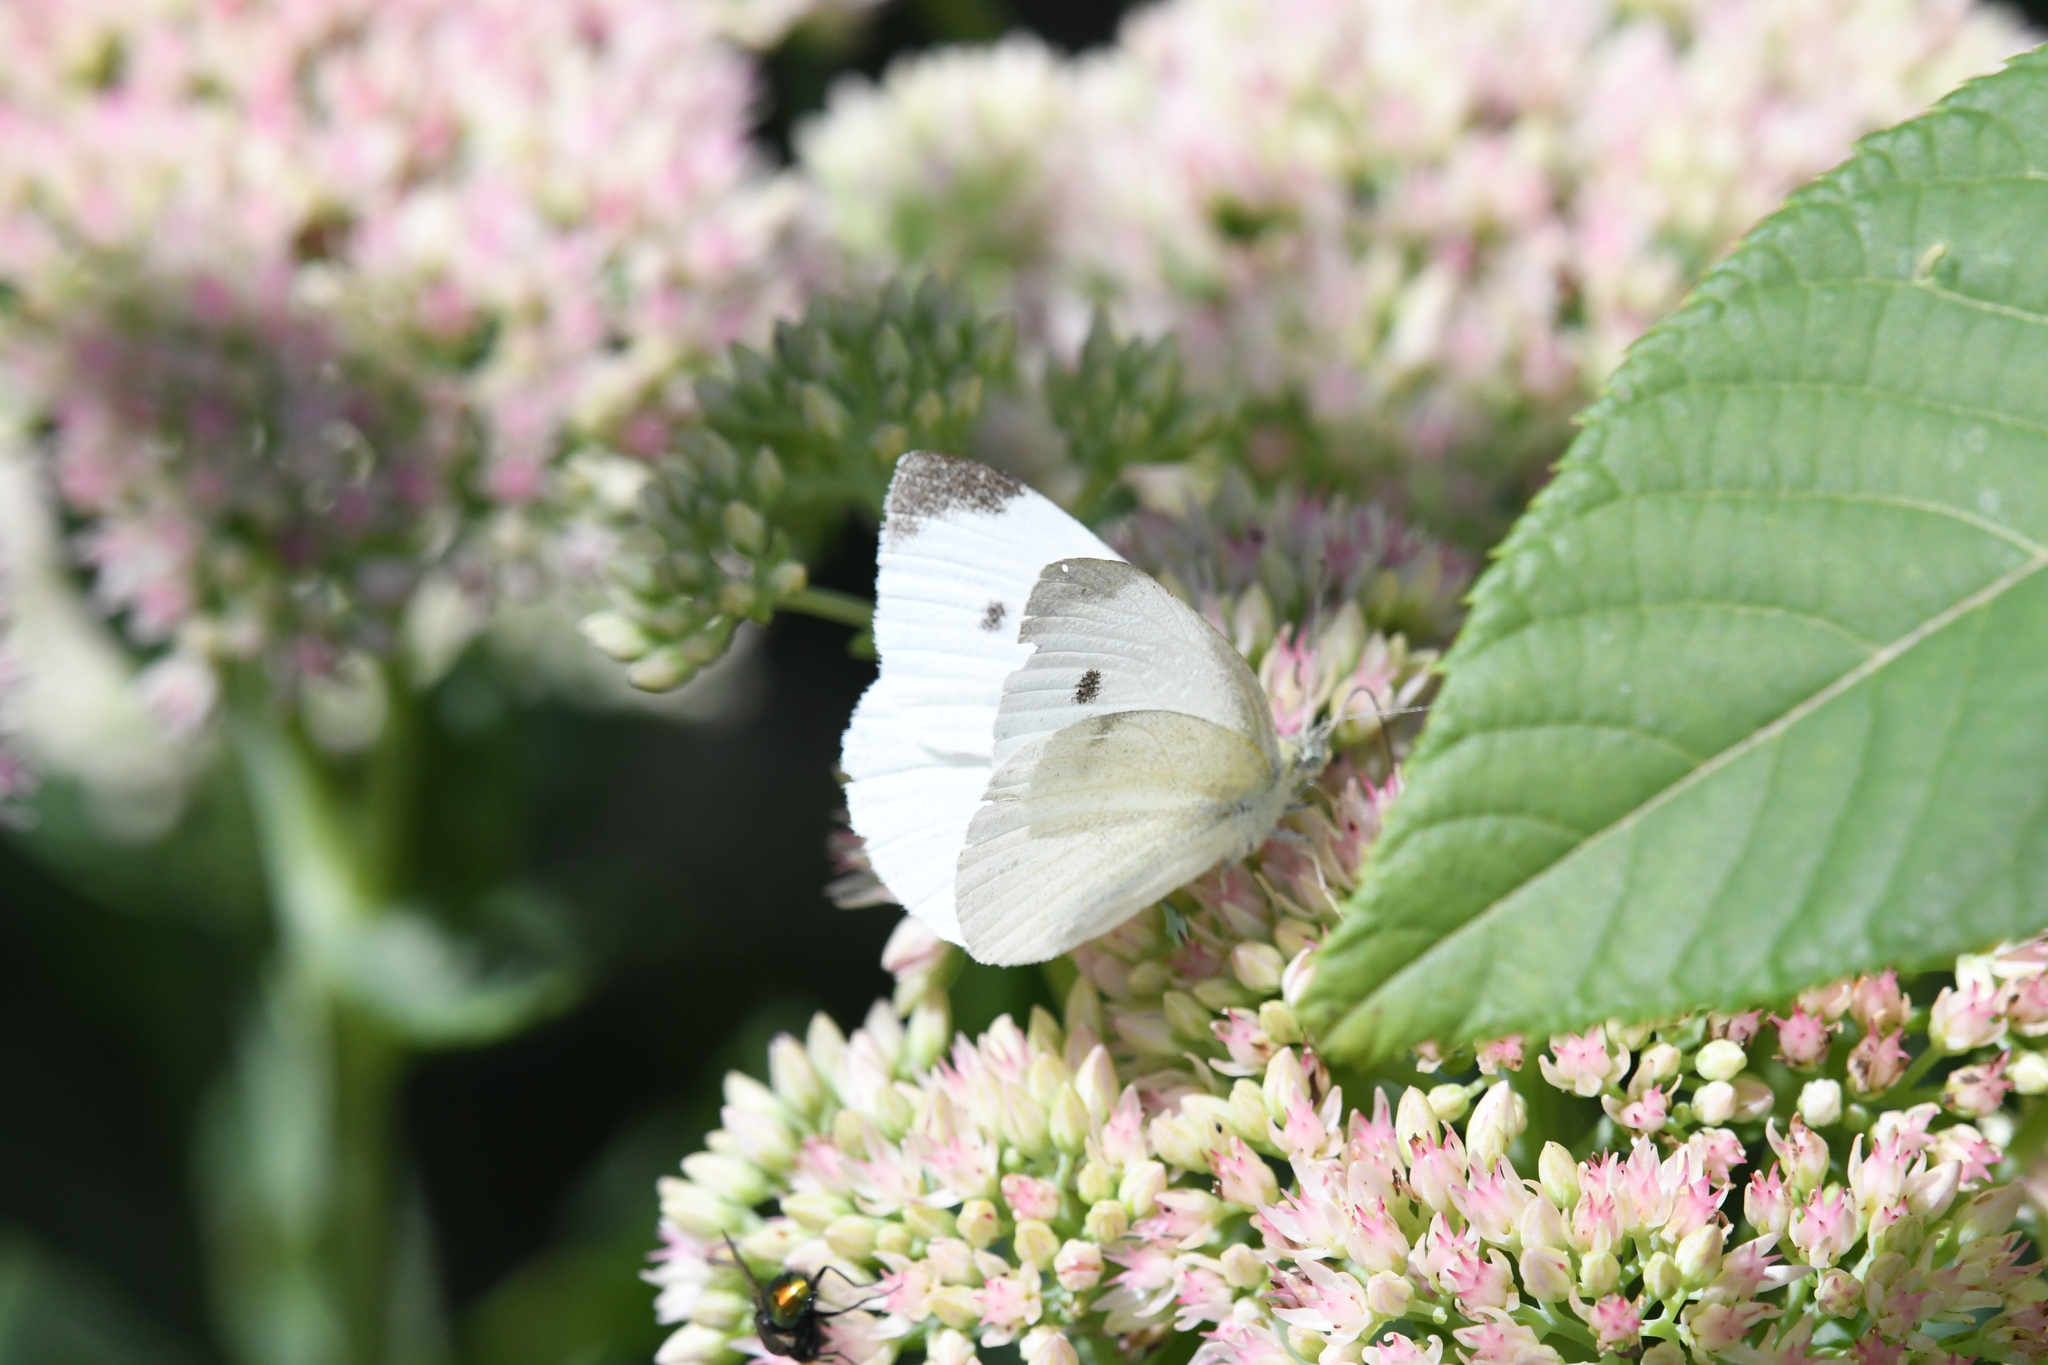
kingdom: Animalia
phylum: Arthropoda
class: Insecta
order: Lepidoptera
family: Pieridae
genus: Pieris
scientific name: Pieris rapae
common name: Small white
